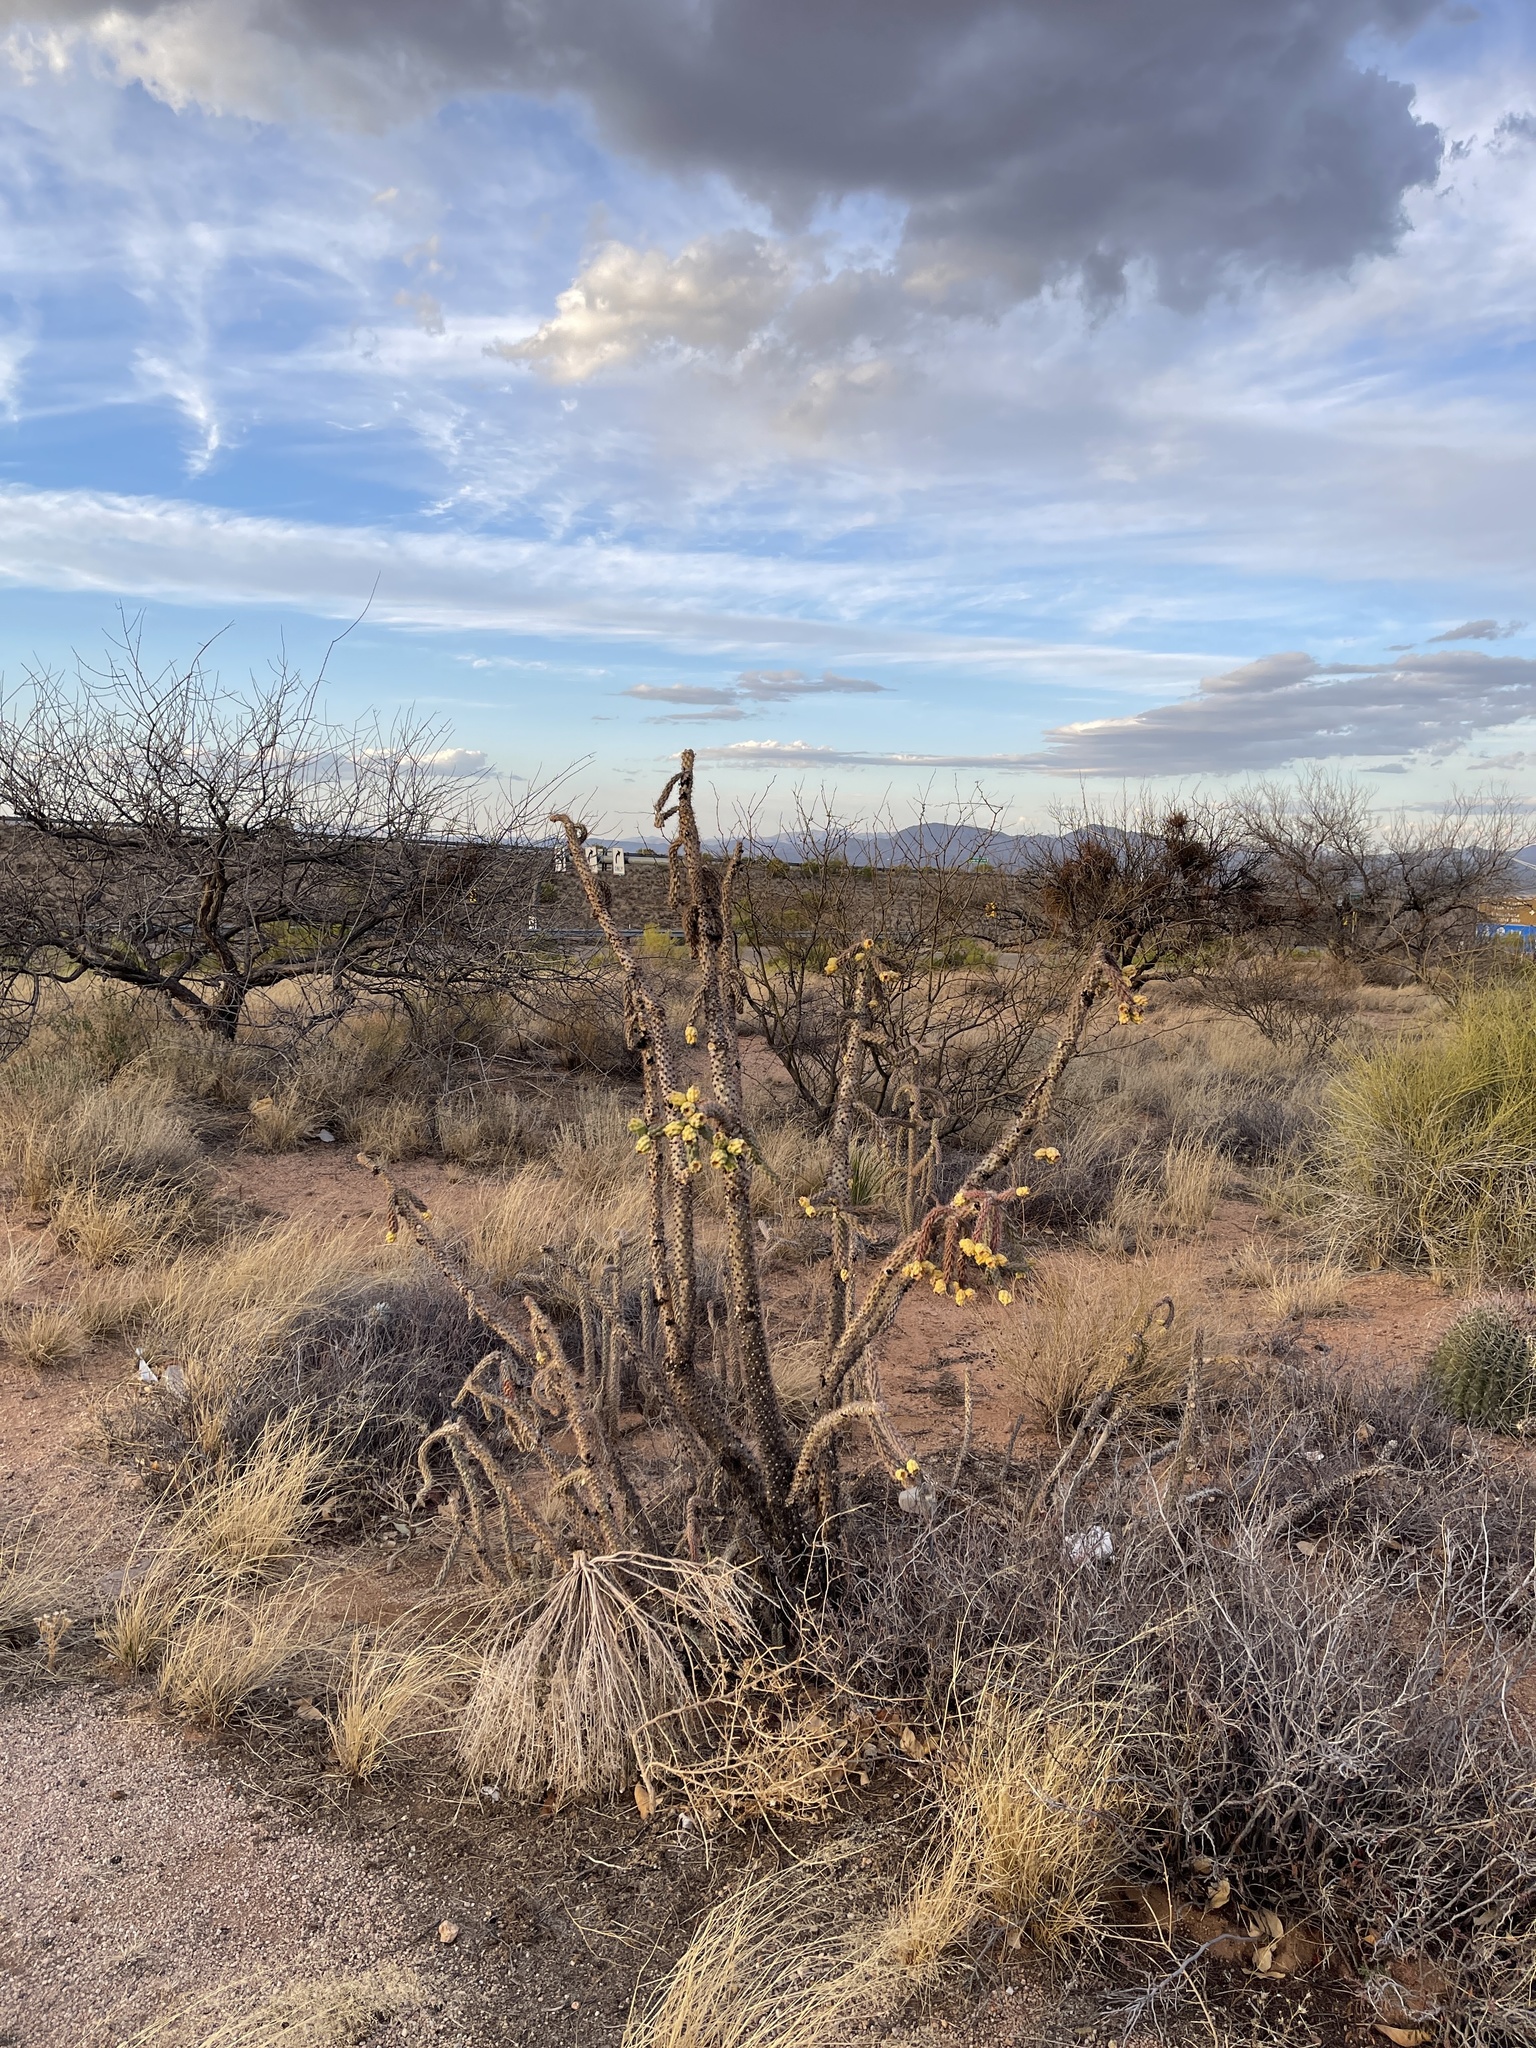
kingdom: Plantae
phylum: Tracheophyta
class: Magnoliopsida
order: Caryophyllales
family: Cactaceae
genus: Cylindropuntia
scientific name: Cylindropuntia imbricata
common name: Candelabrum cactus
